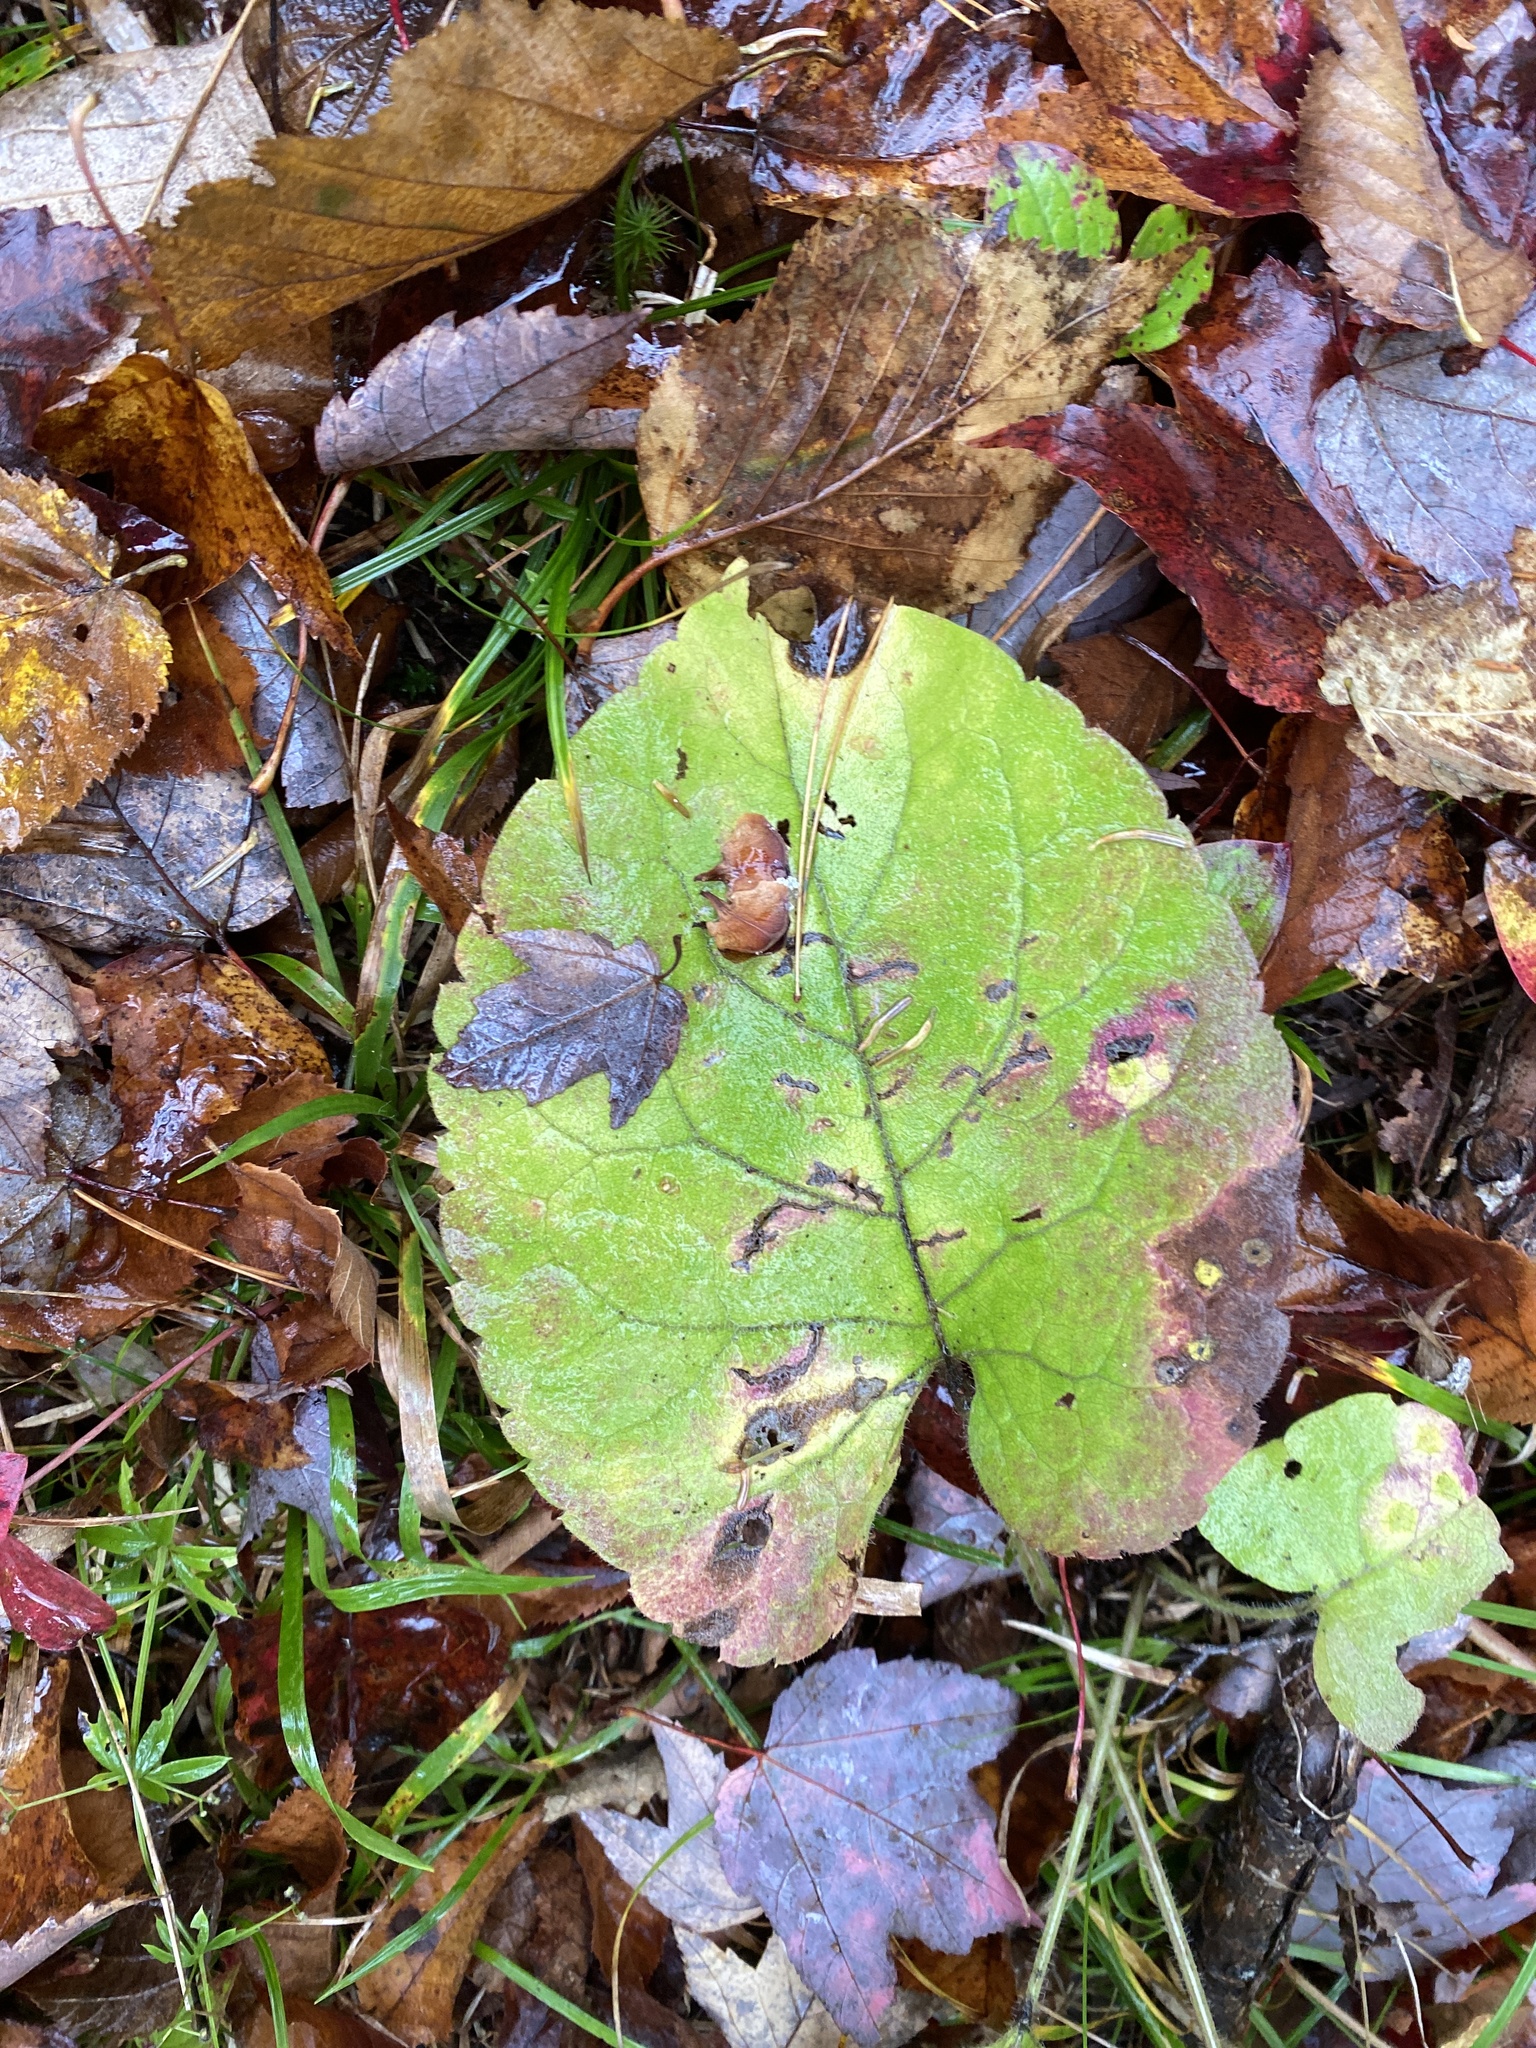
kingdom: Plantae
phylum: Tracheophyta
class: Magnoliopsida
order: Asterales
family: Asteraceae
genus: Eurybia
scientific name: Eurybia macrophylla
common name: Big-leaved aster
